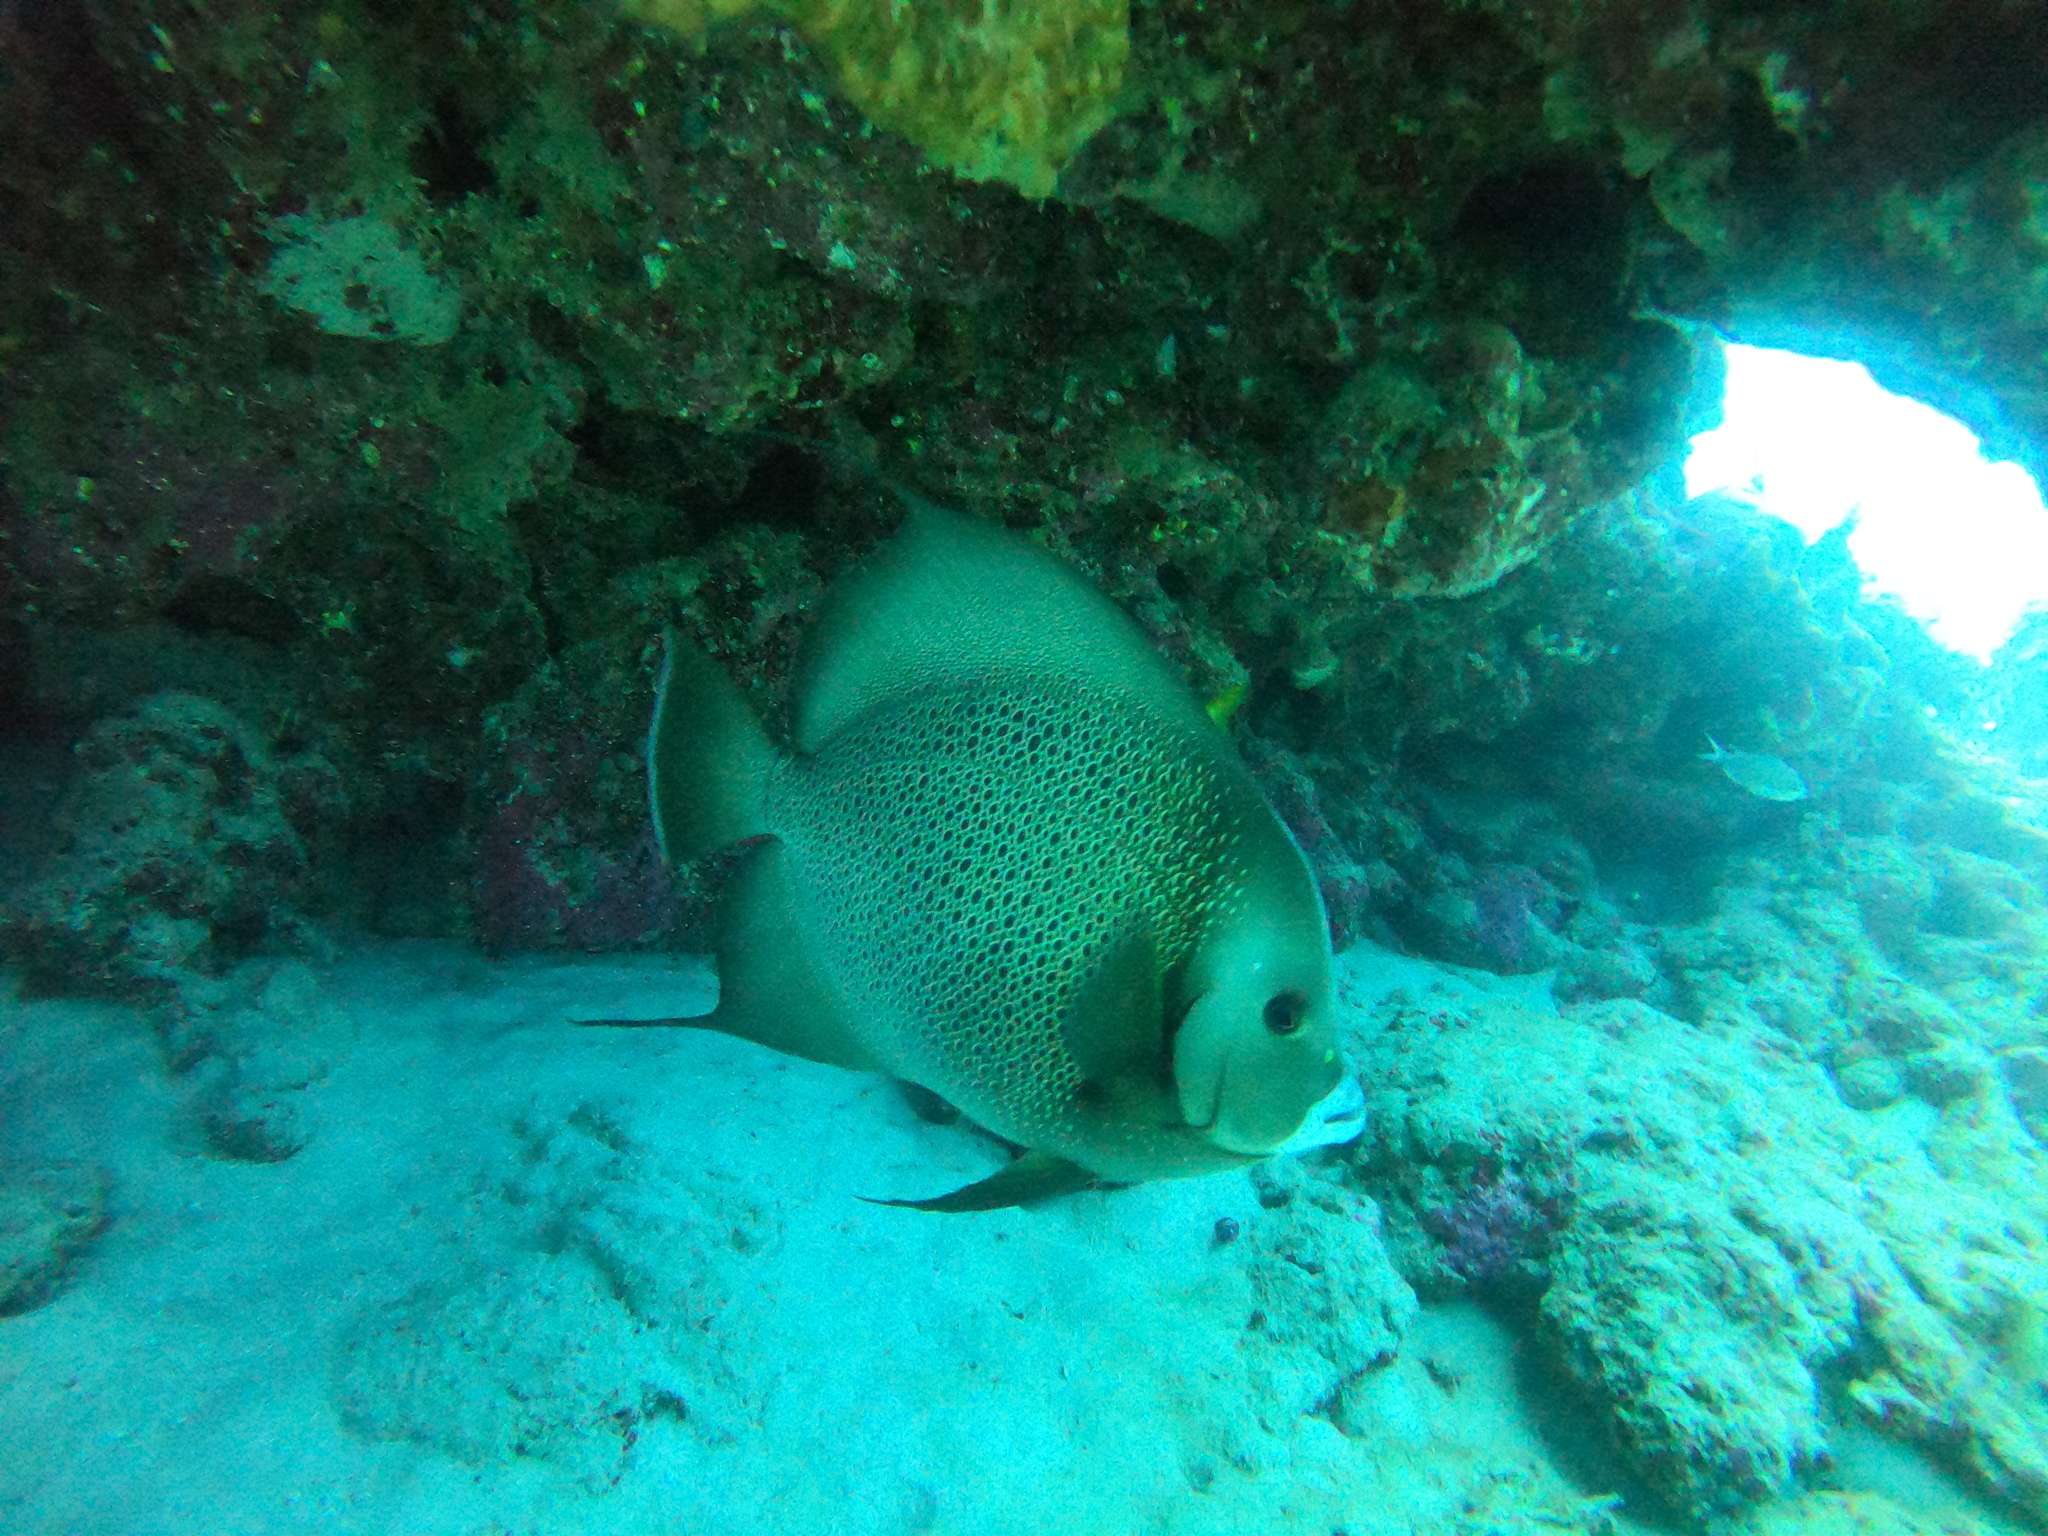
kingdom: Animalia
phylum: Chordata
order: Perciformes
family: Pomacanthidae
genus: Pomacanthus
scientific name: Pomacanthus arcuatus
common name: Gray angelfish
